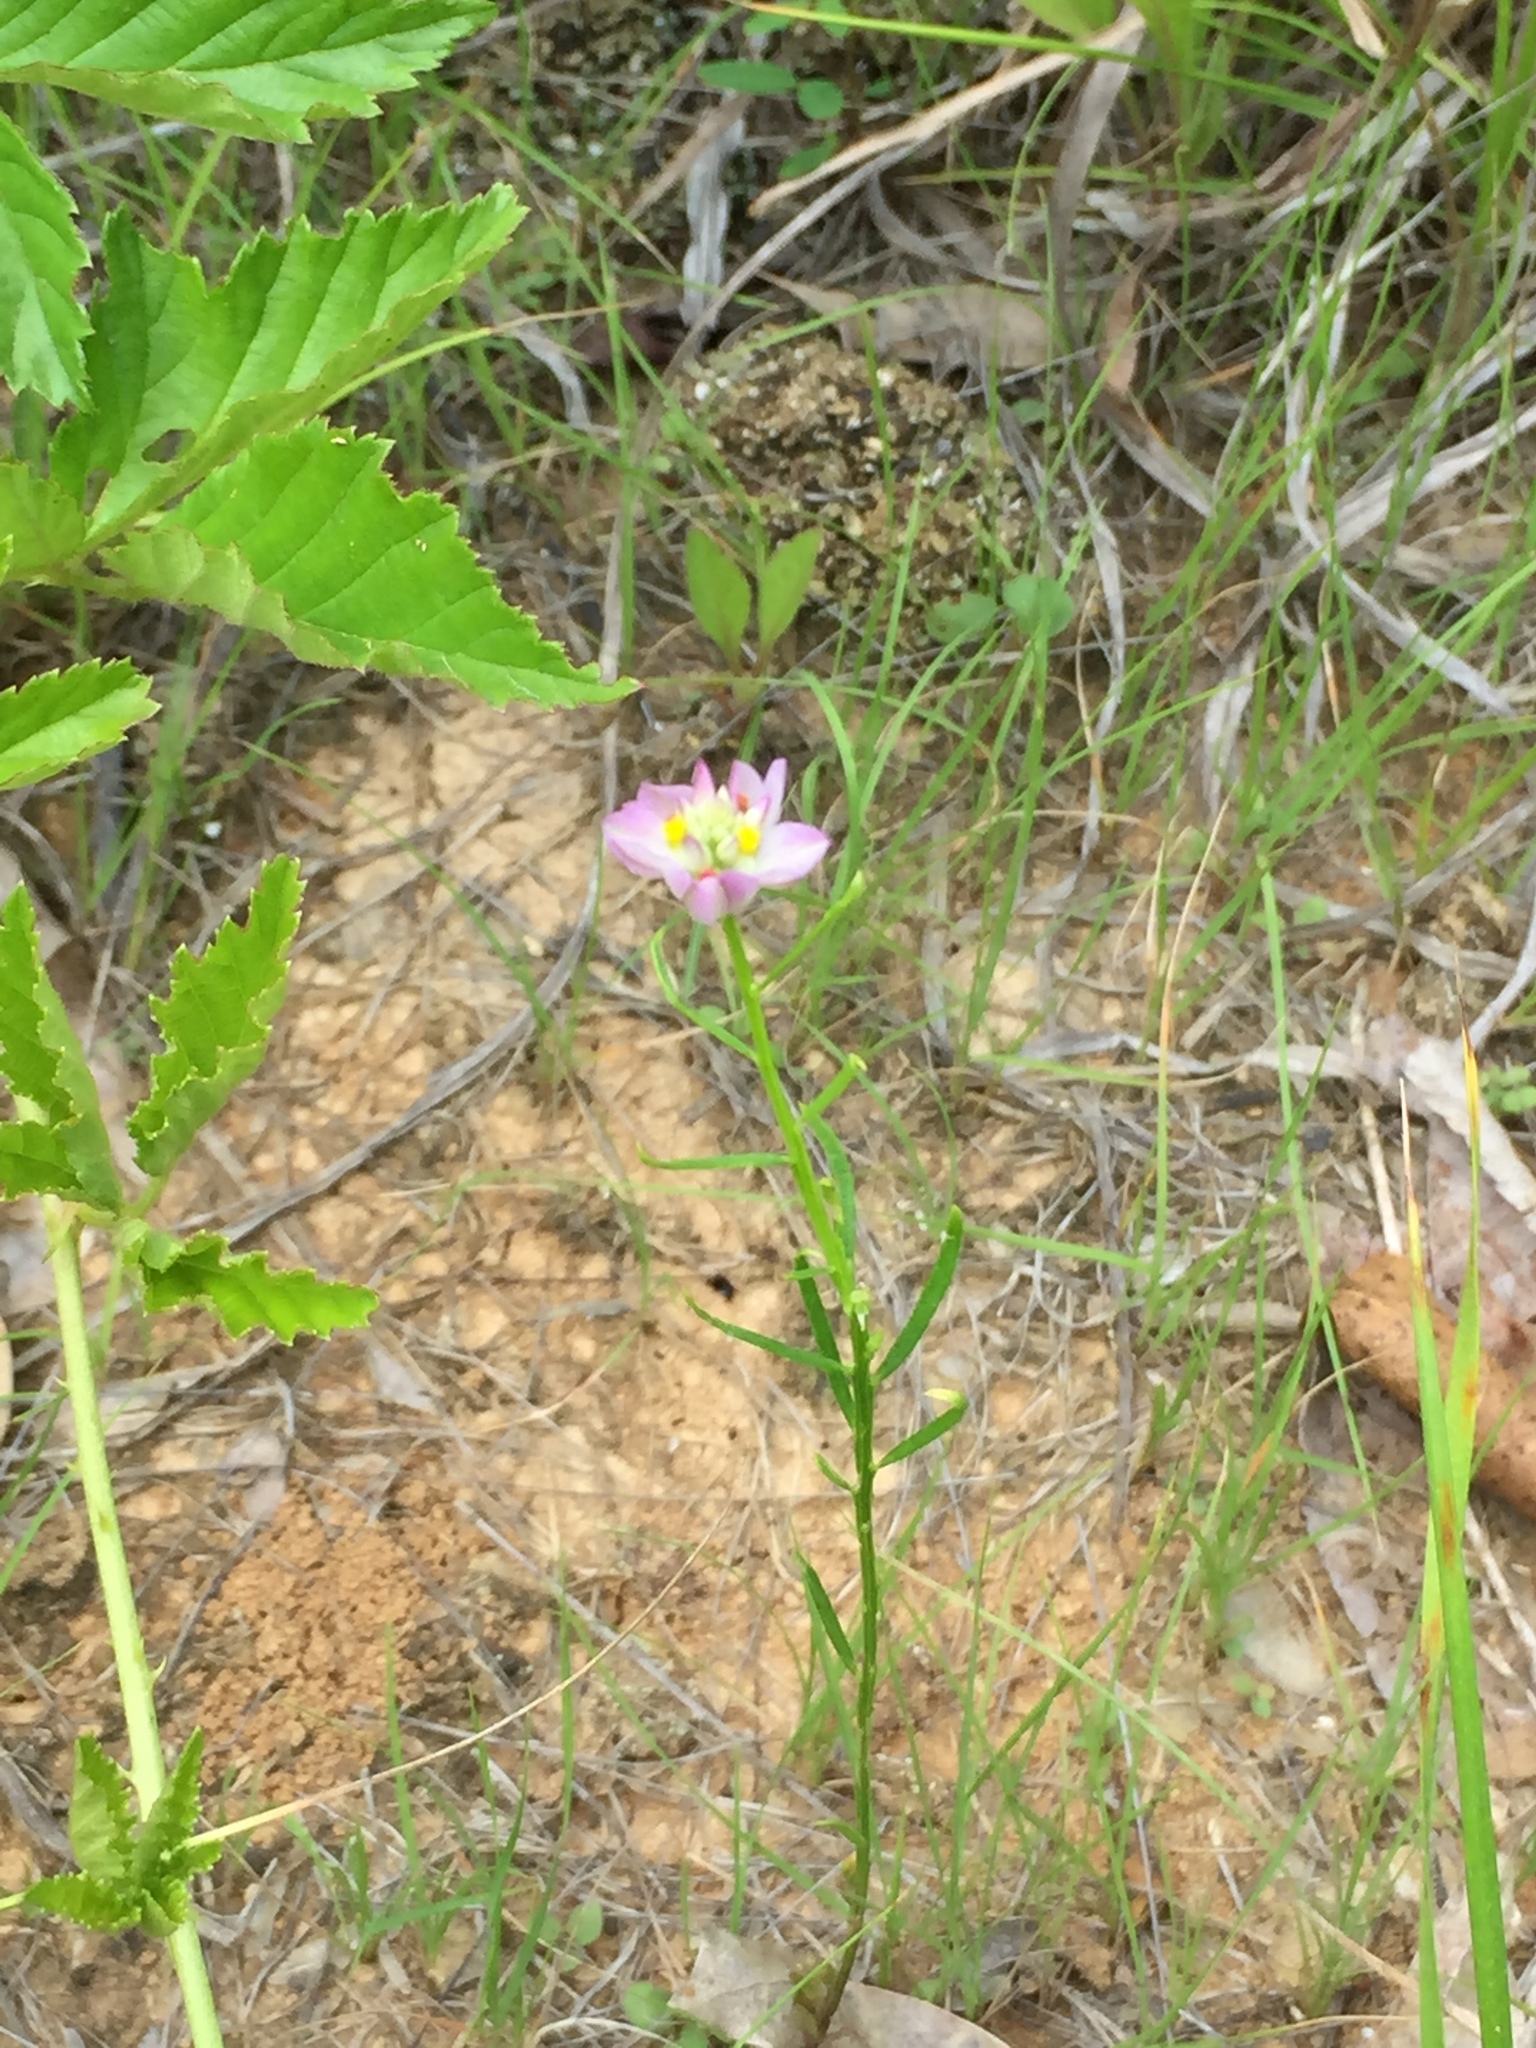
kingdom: Plantae
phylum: Tracheophyta
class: Magnoliopsida
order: Fabales
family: Polygalaceae
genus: Polygala
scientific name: Polygala curtissii
